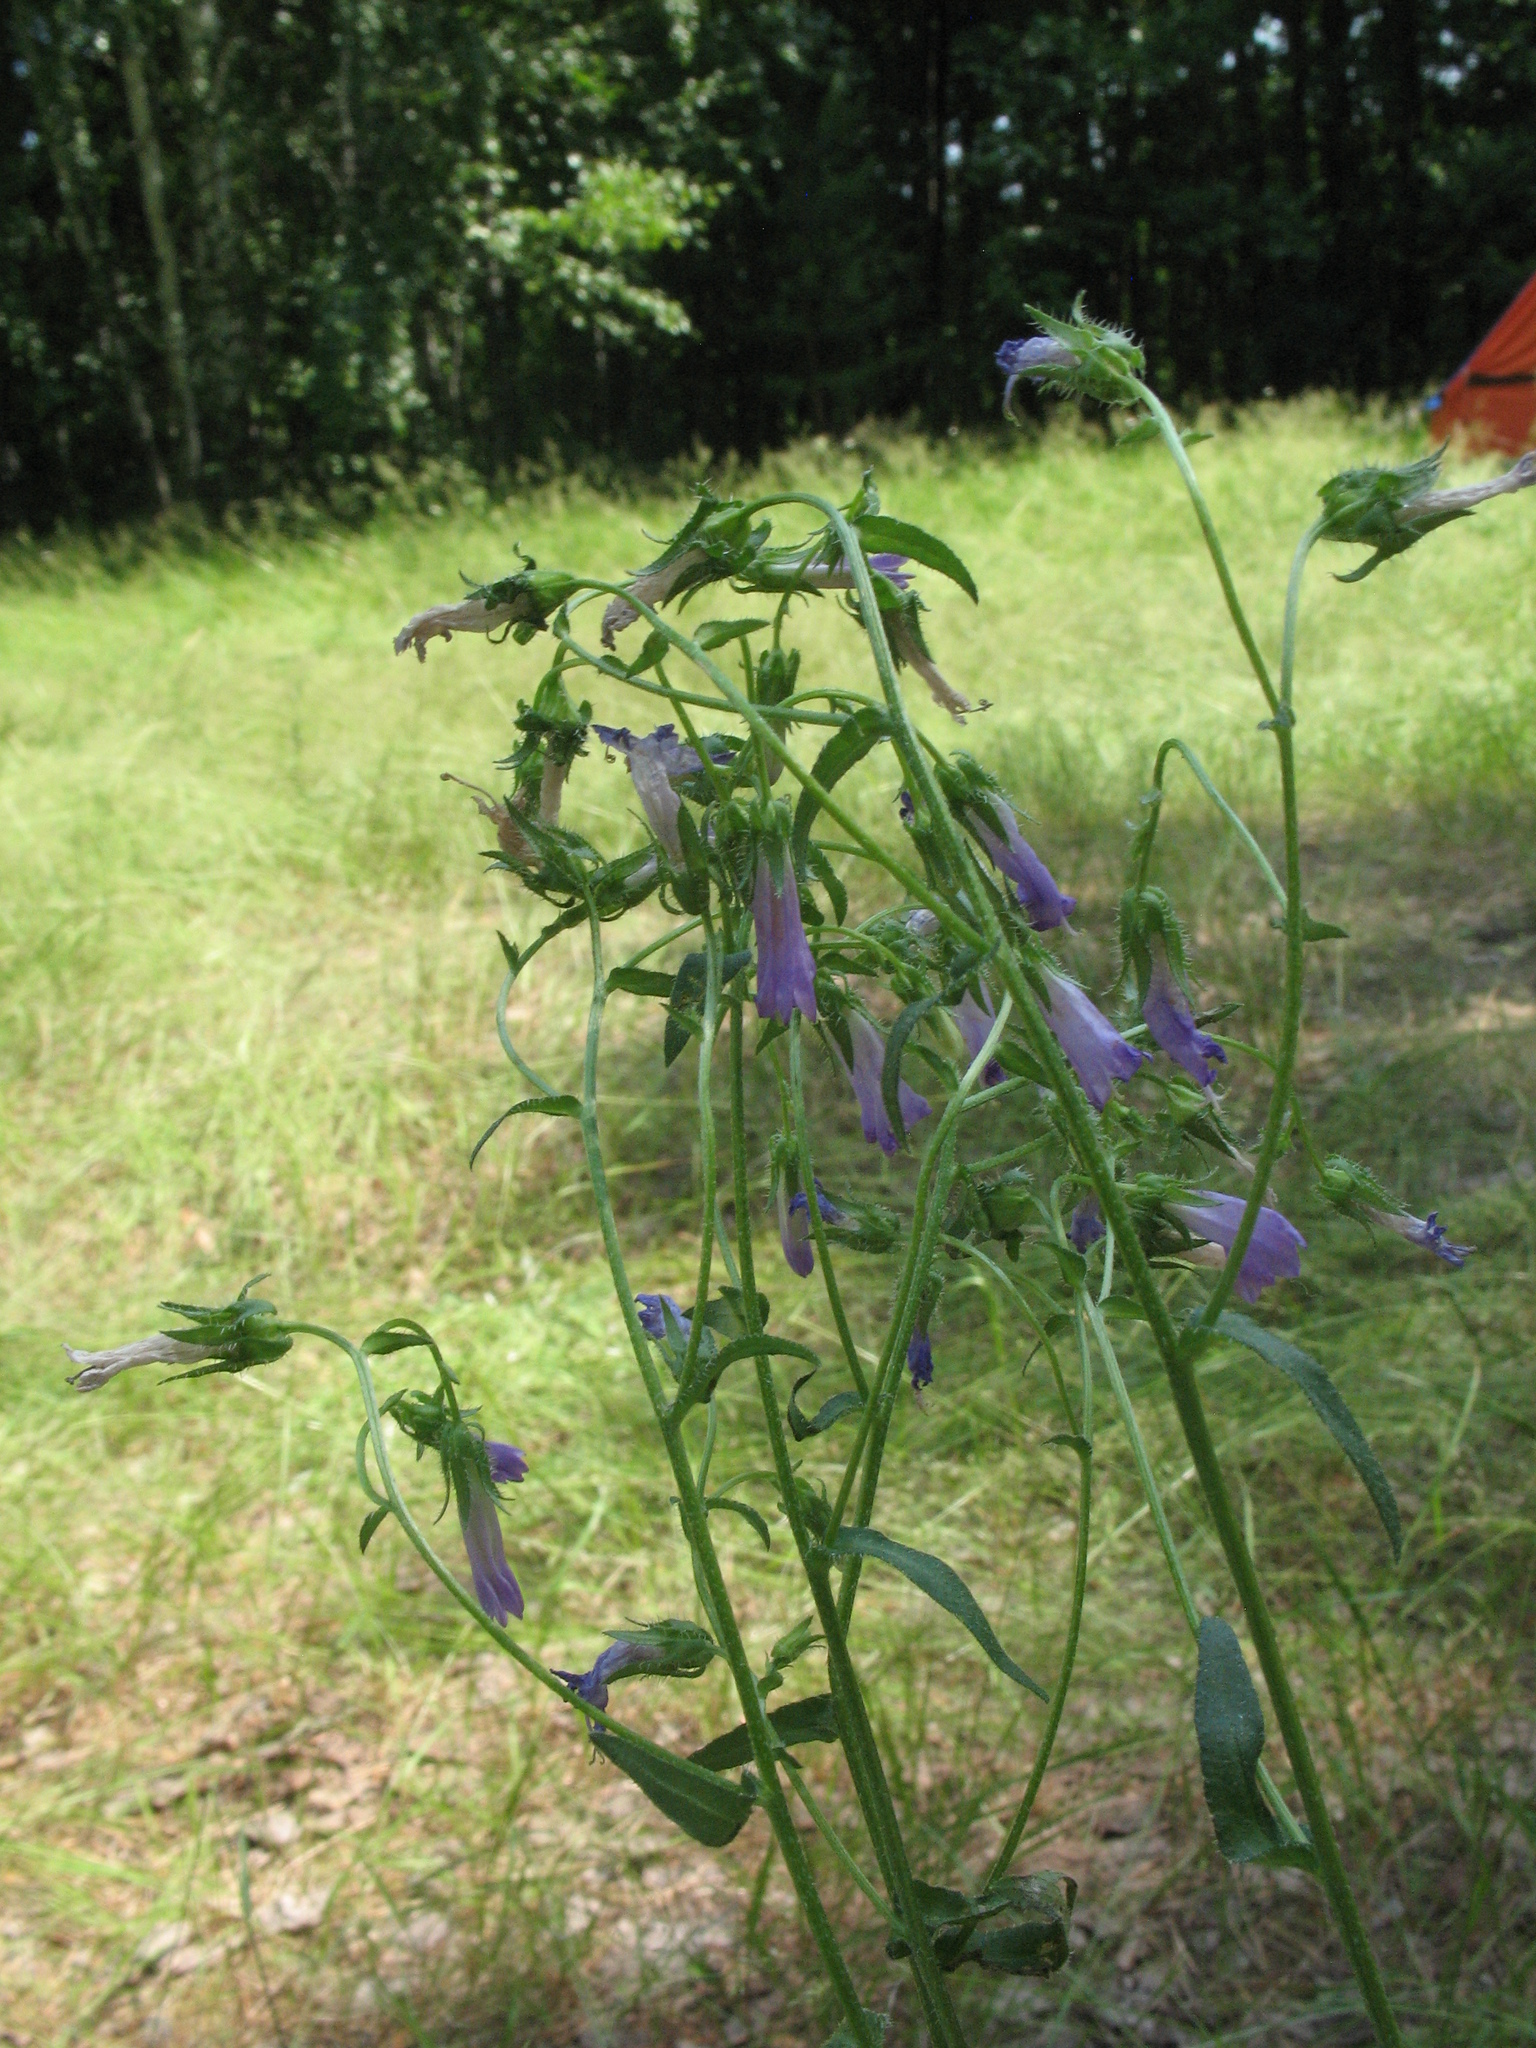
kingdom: Plantae
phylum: Tracheophyta
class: Magnoliopsida
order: Asterales
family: Campanulaceae
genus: Campanula
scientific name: Campanula sibirica
